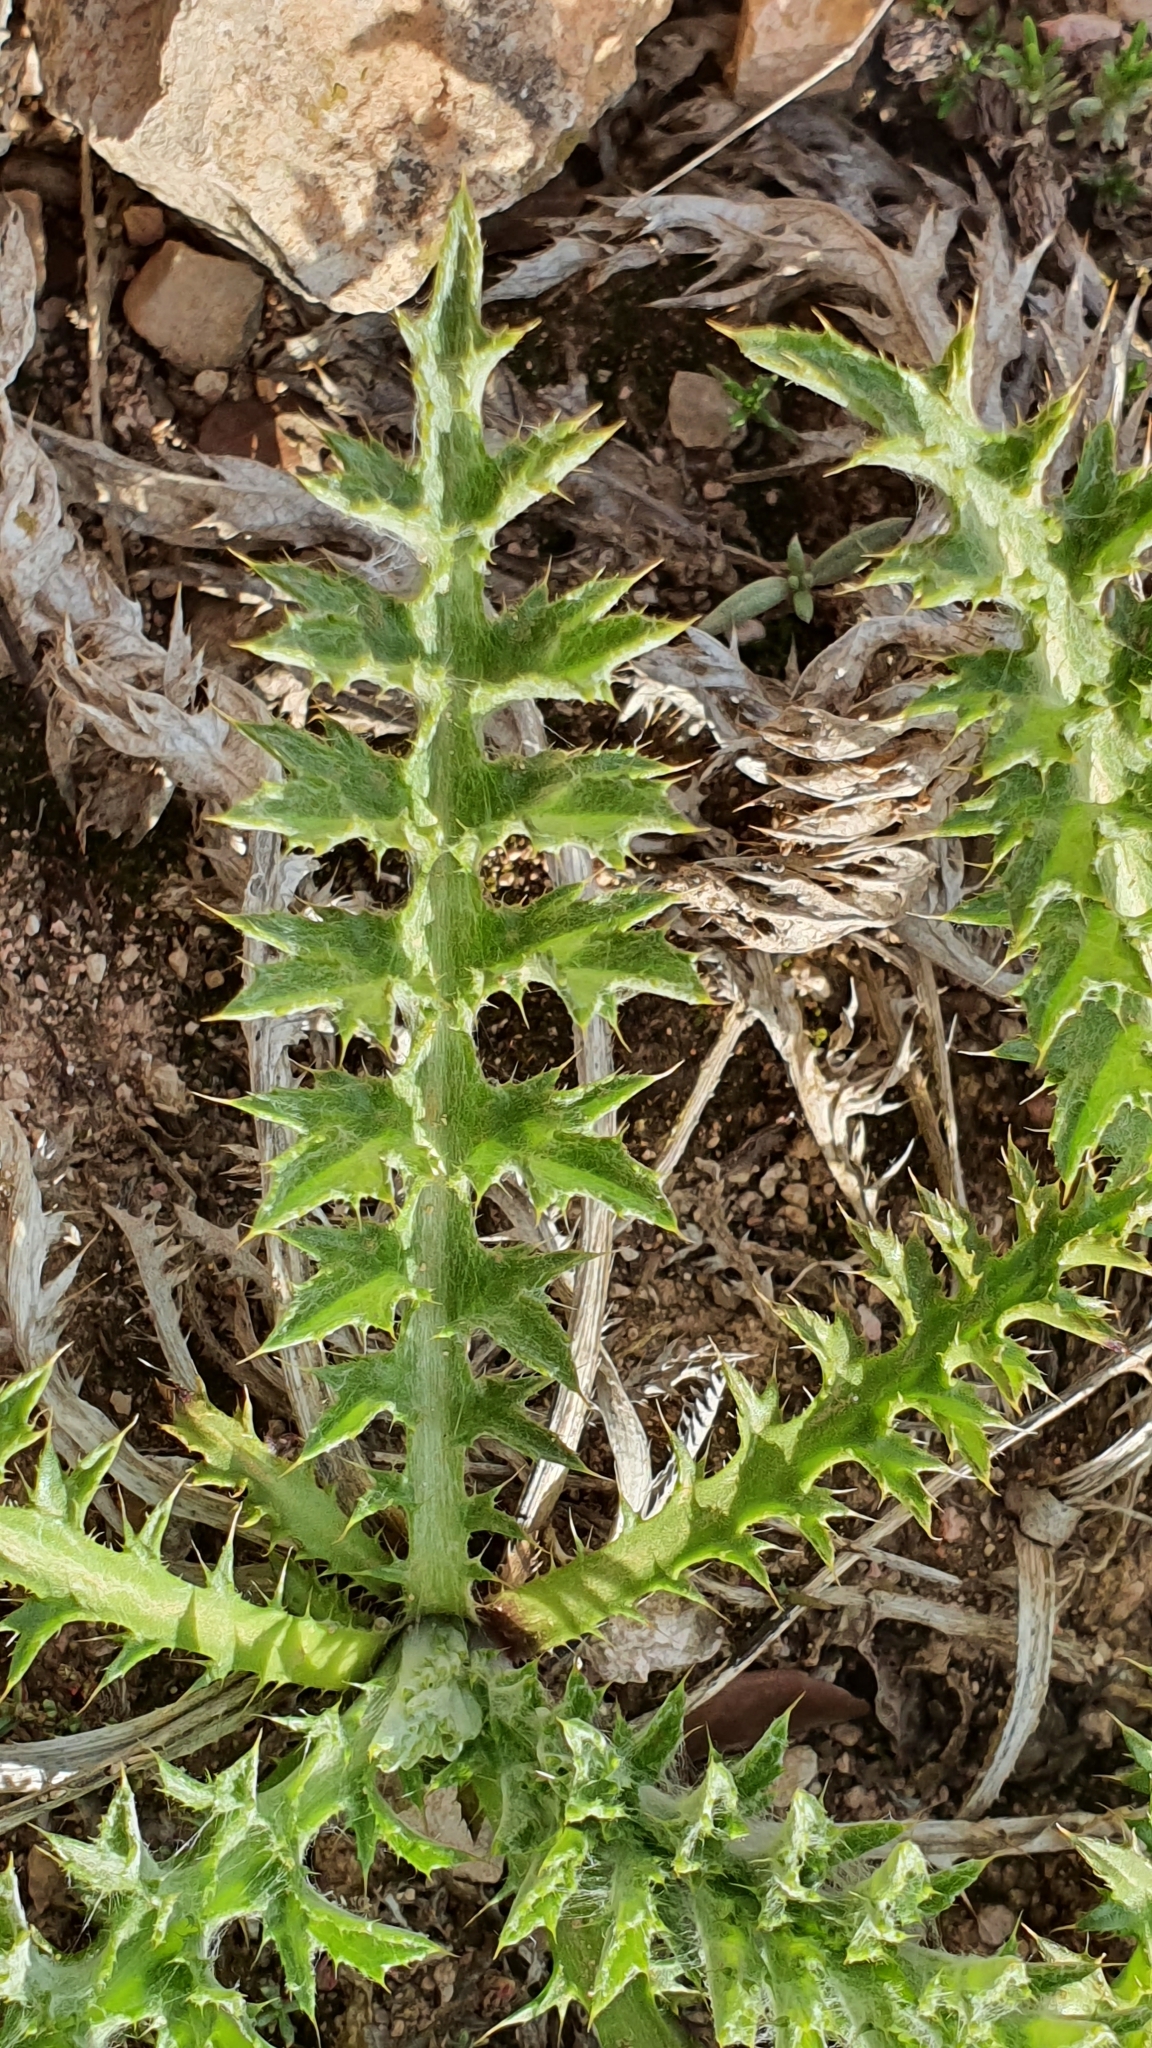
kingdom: Plantae
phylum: Tracheophyta
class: Magnoliopsida
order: Asterales
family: Asteraceae
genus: Chamaeleon
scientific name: Chamaeleon gummifer
